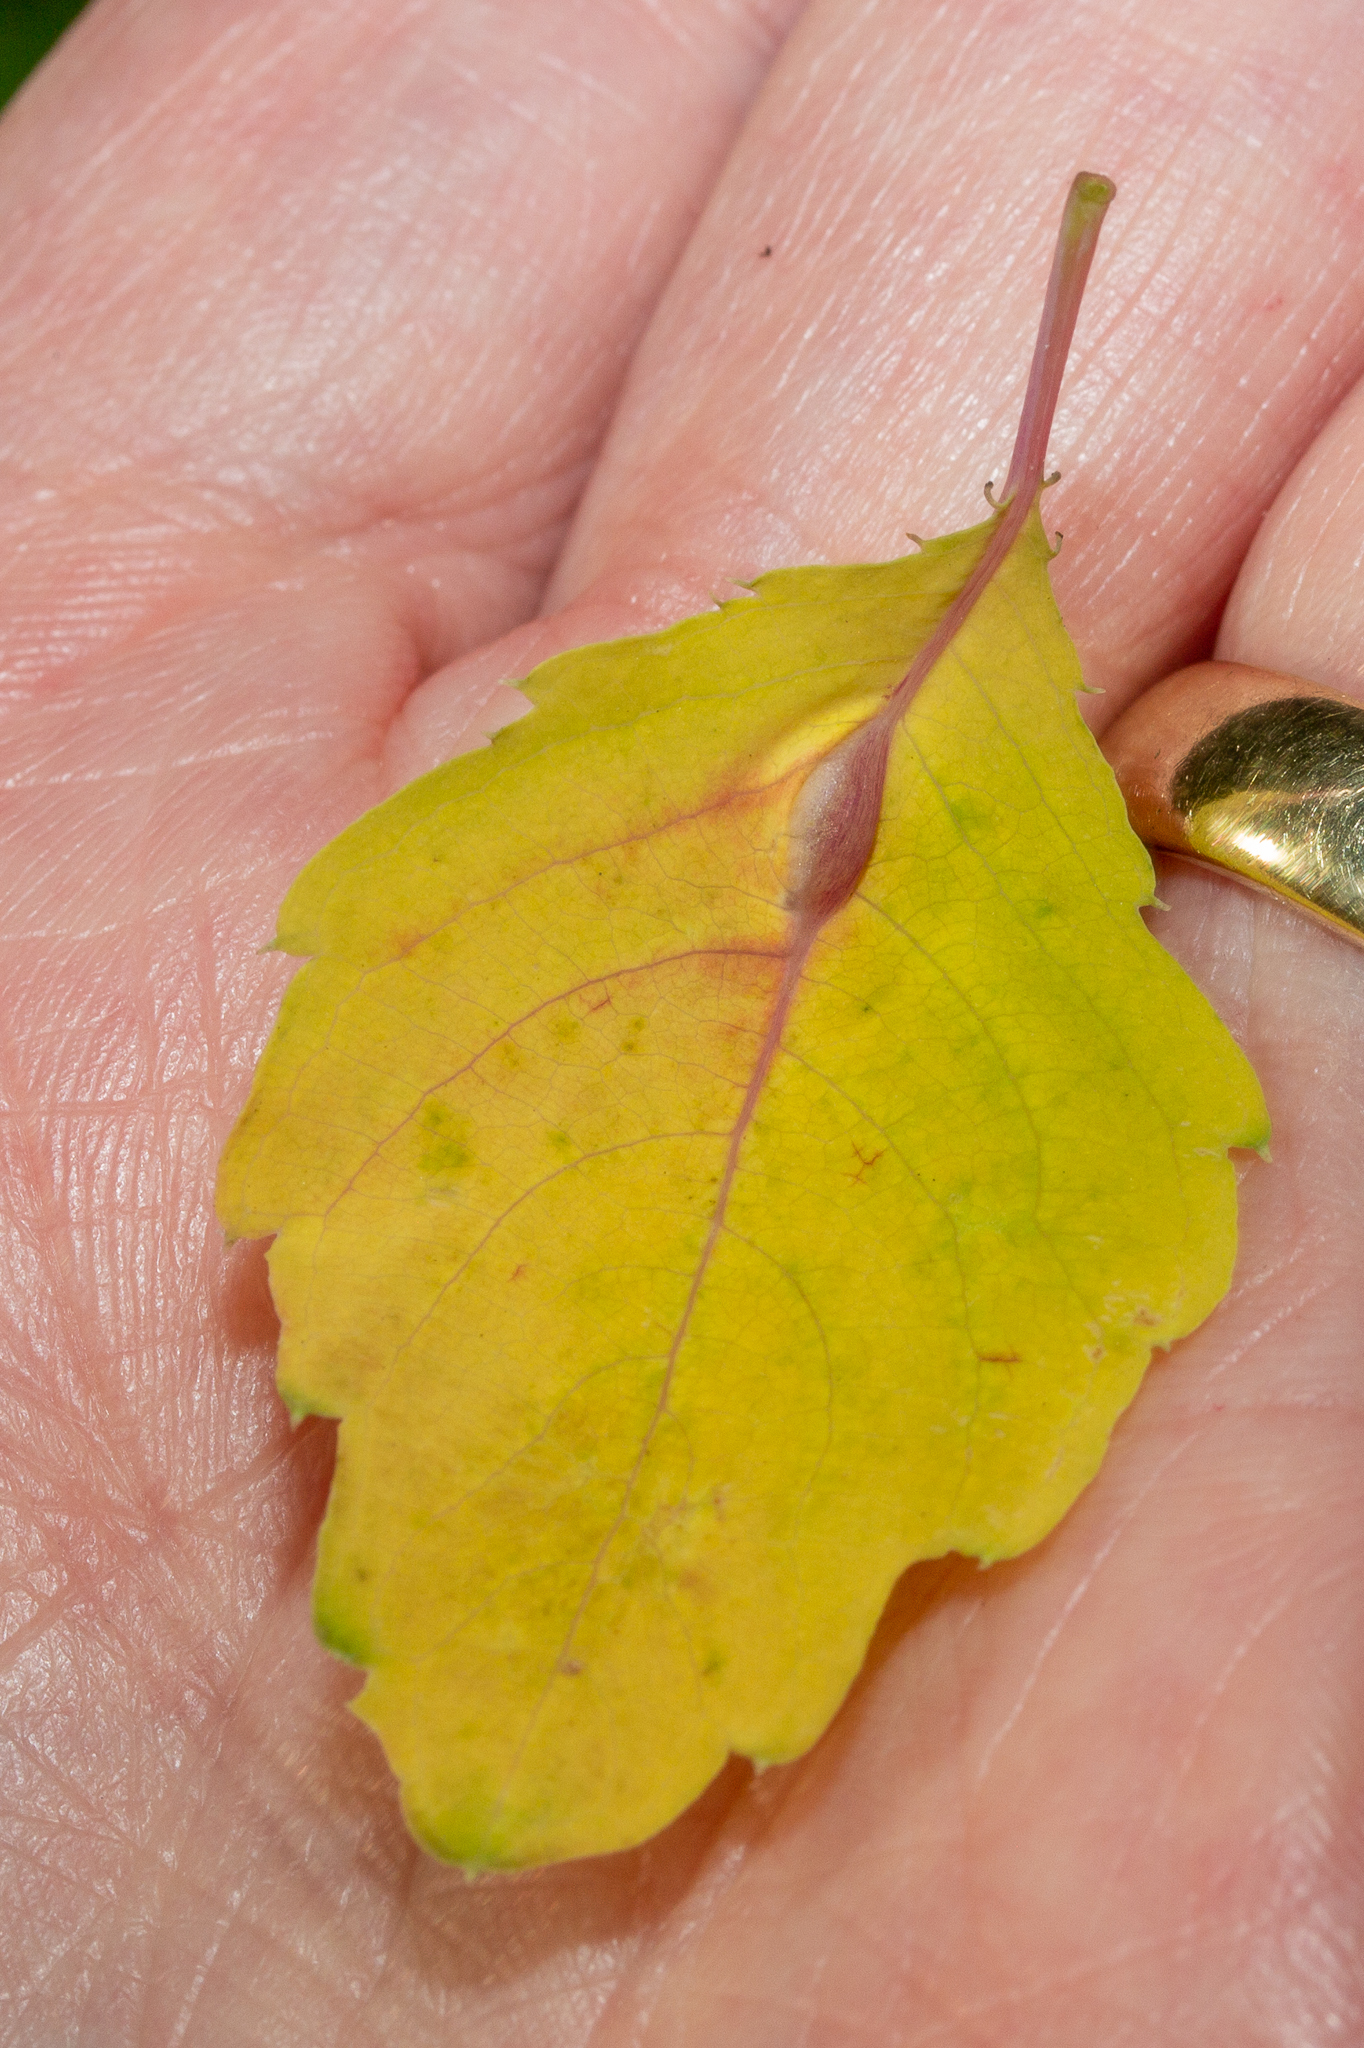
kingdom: Animalia
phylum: Arthropoda
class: Insecta
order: Diptera
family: Cecidomyiidae
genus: Neolasioptera
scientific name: Neolasioptera impatientifolia
